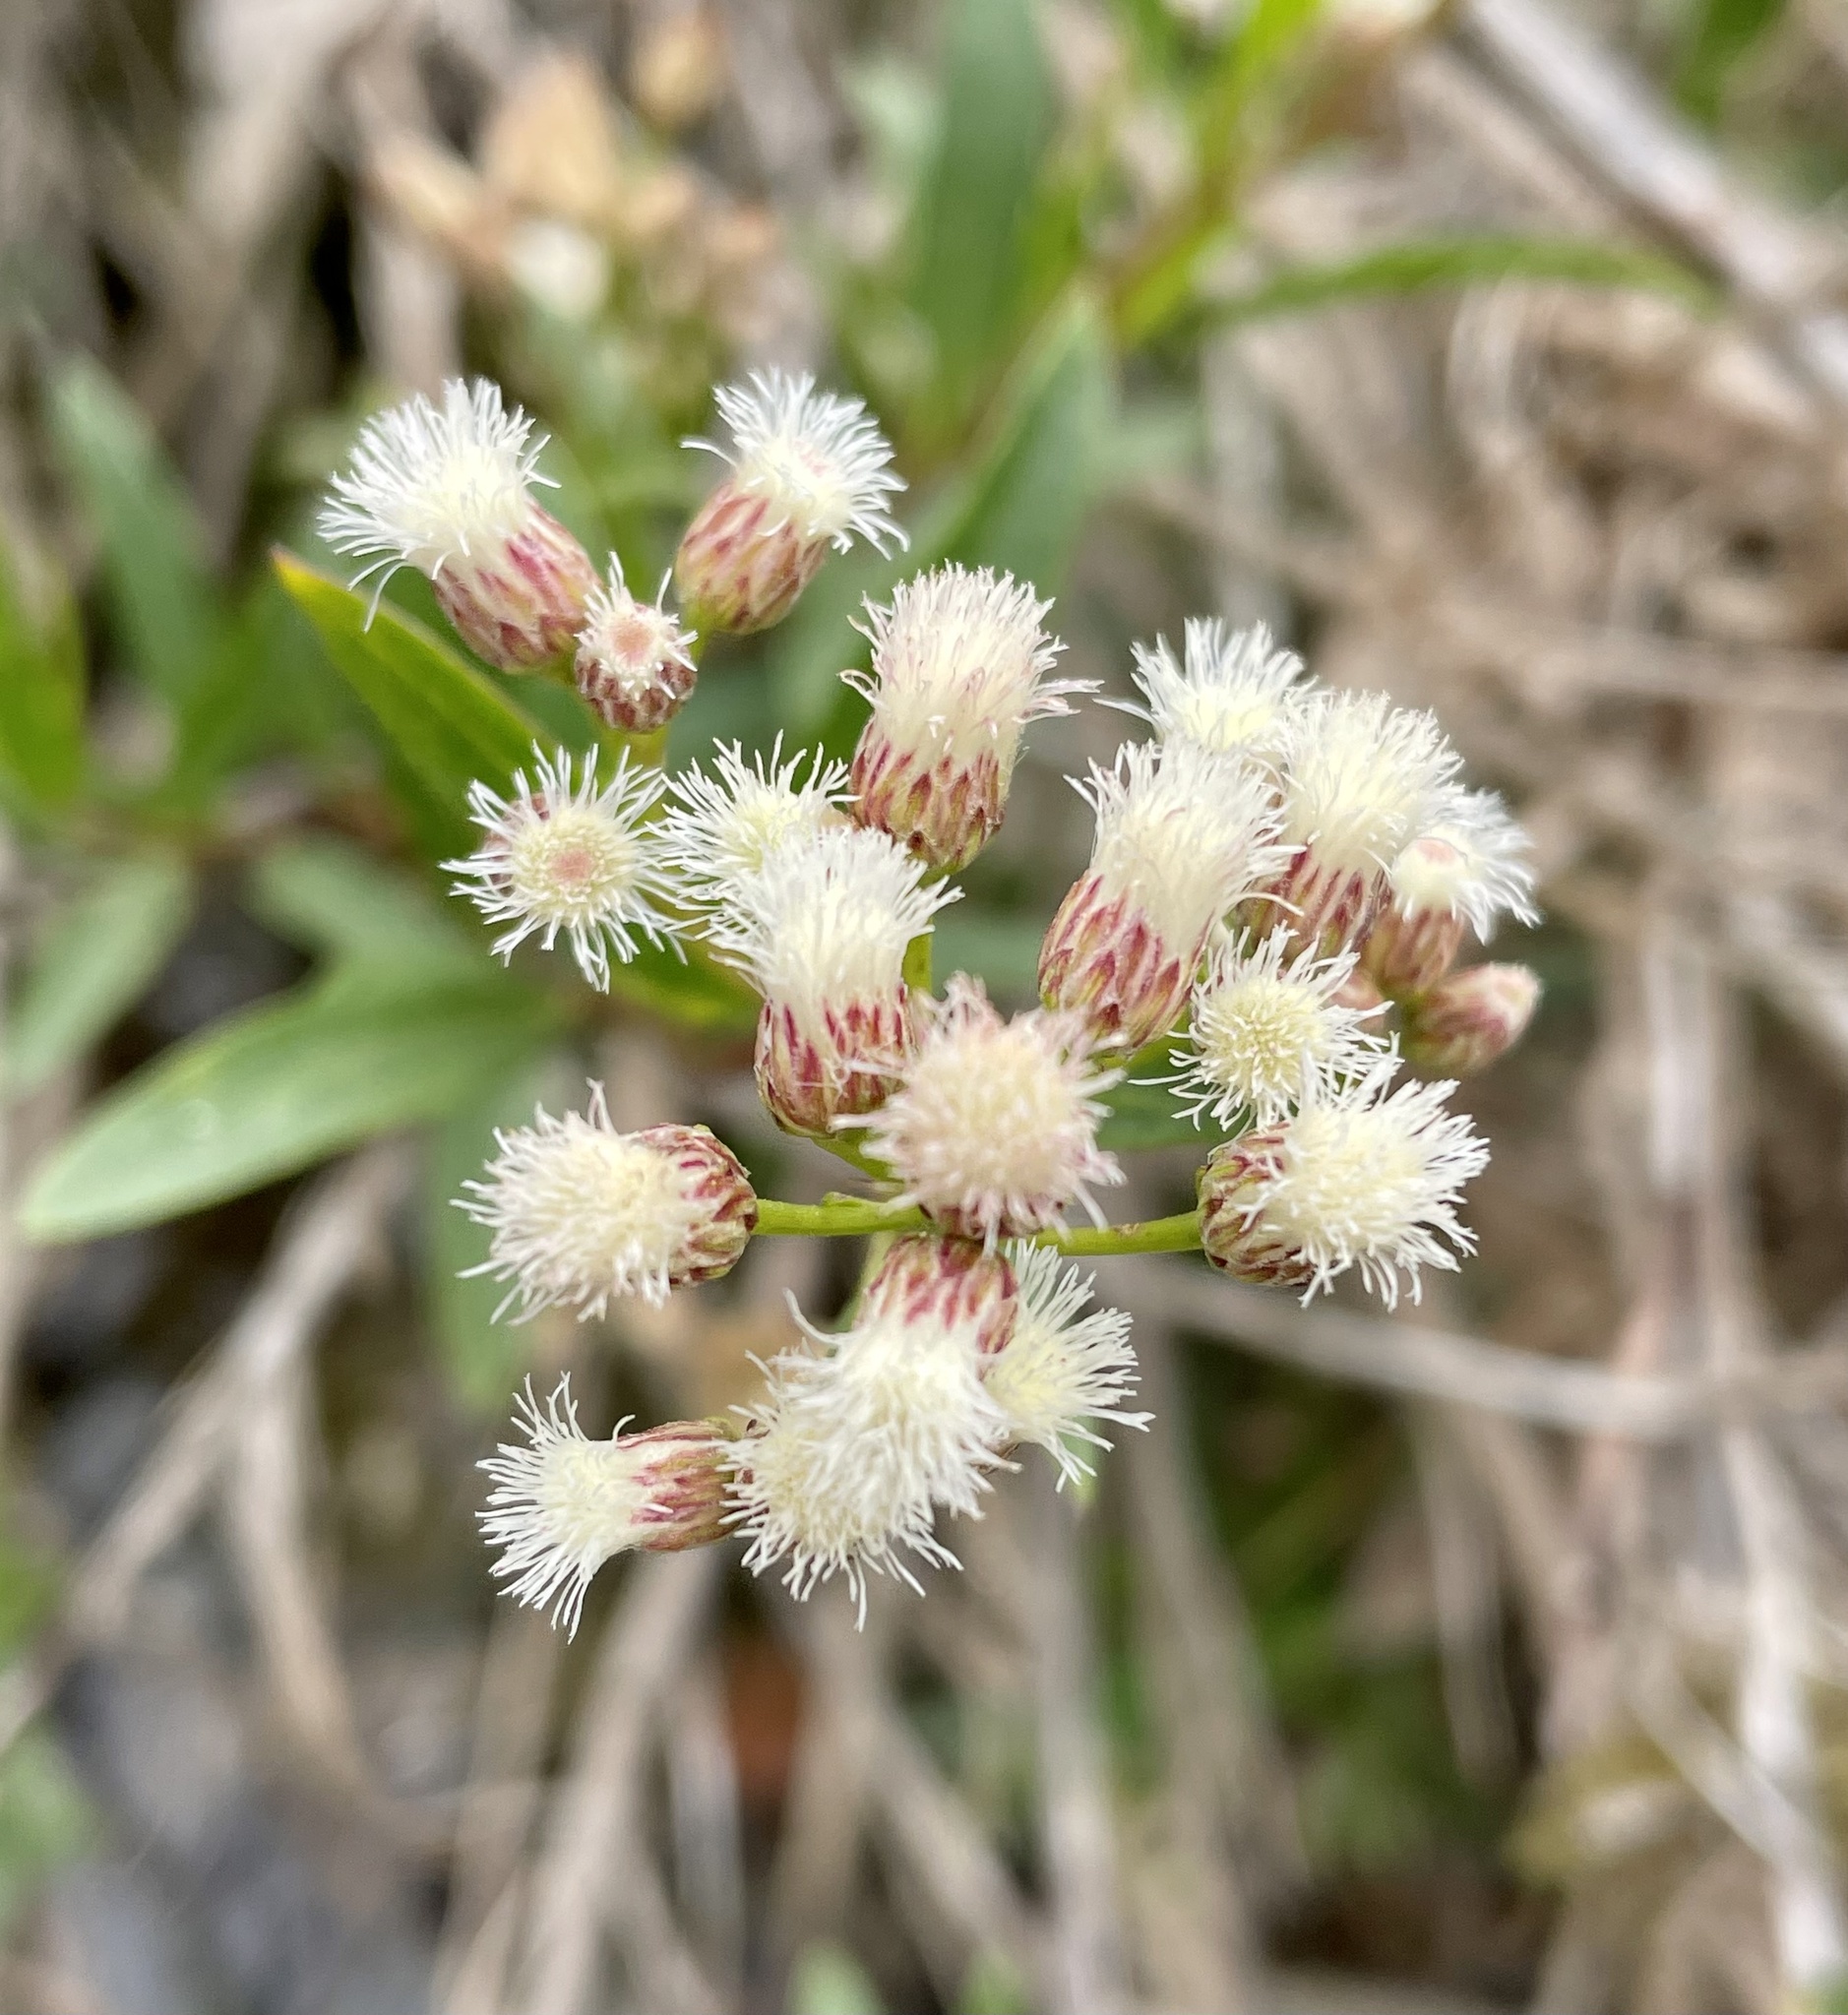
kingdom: Plantae
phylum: Tracheophyta
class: Magnoliopsida
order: Asterales
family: Asteraceae
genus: Baccharis
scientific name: Baccharis salicifolia
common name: Sticky baccharis
